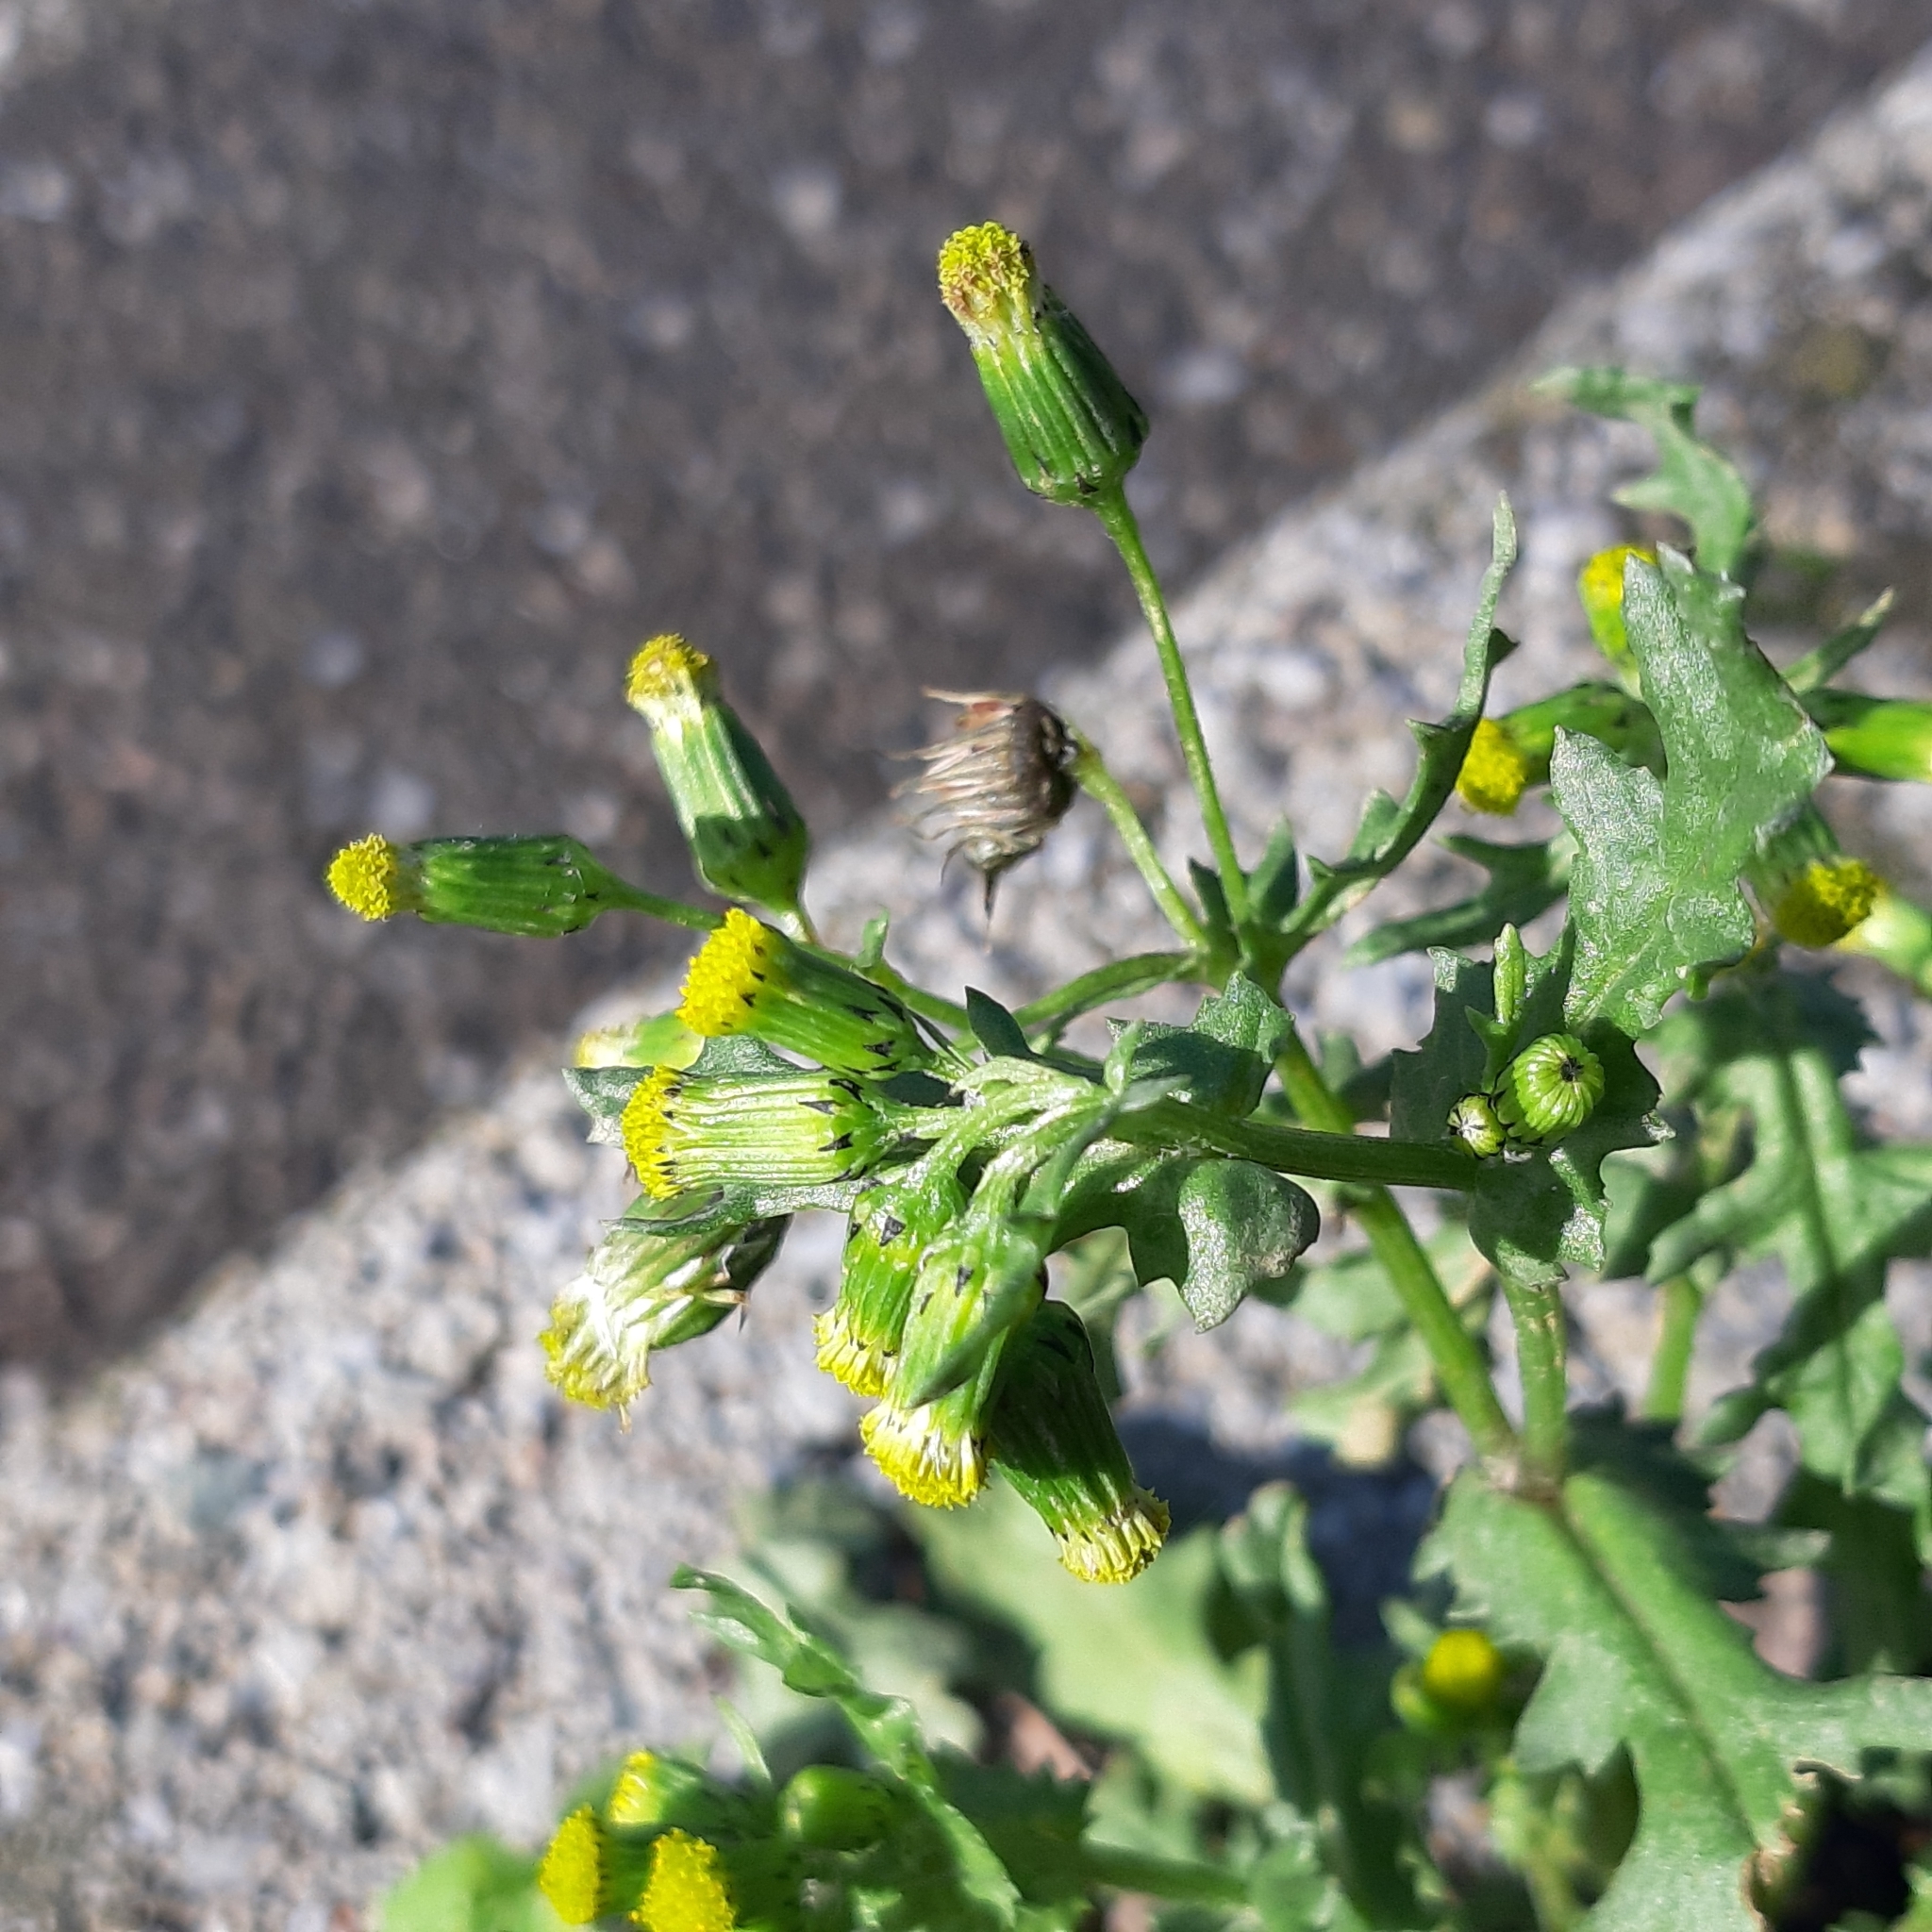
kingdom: Plantae
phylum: Tracheophyta
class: Magnoliopsida
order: Asterales
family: Asteraceae
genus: Senecio
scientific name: Senecio vulgaris
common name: Old-man-in-the-spring
